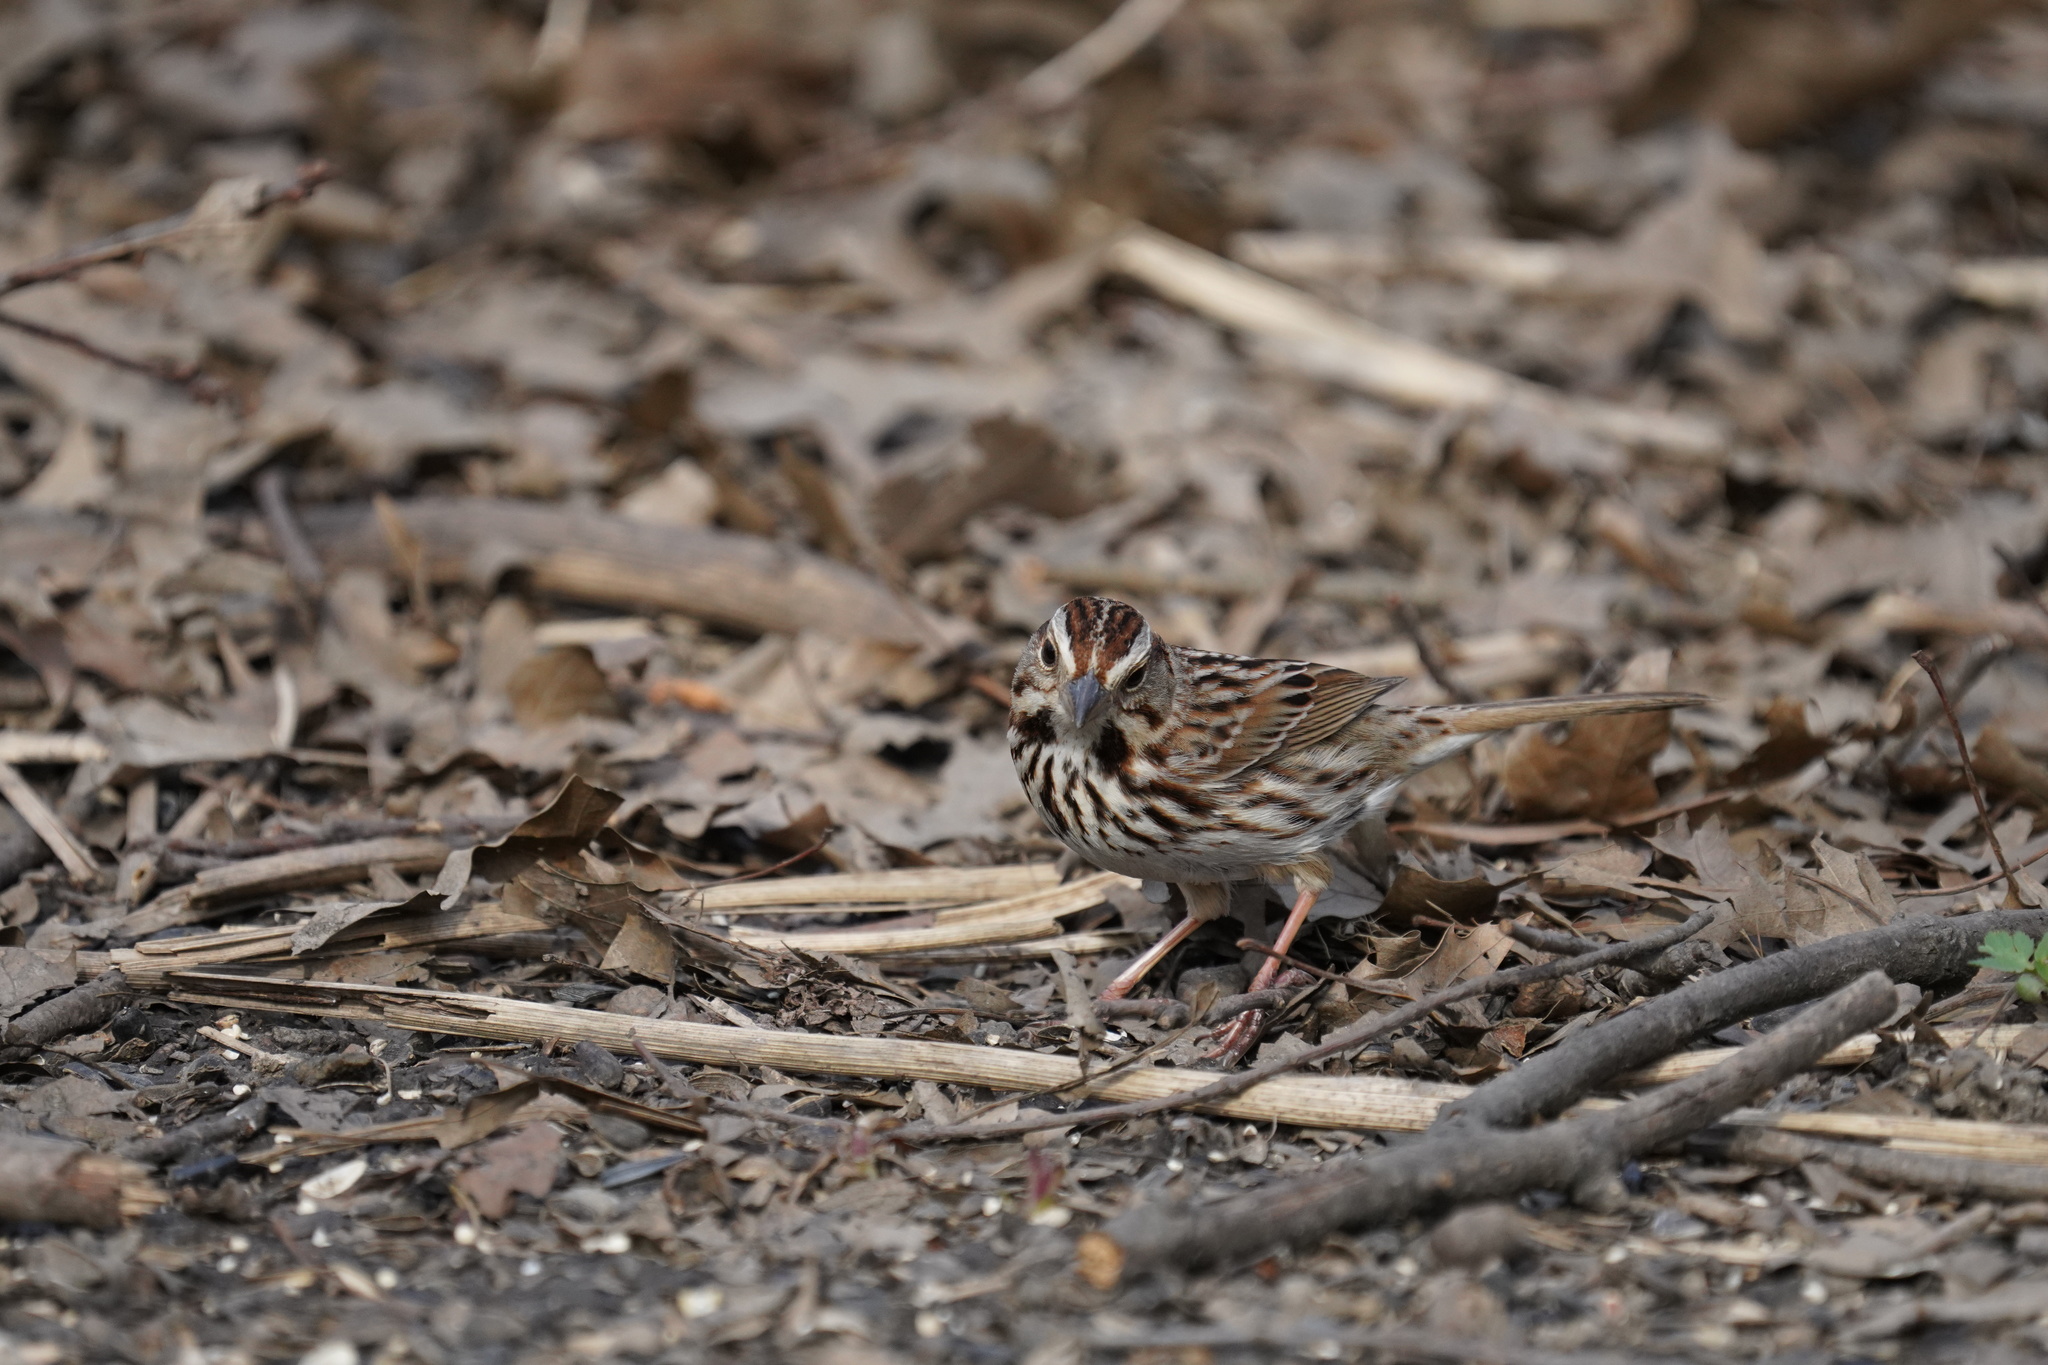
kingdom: Animalia
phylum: Chordata
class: Aves
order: Passeriformes
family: Passerellidae
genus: Melospiza
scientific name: Melospiza melodia
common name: Song sparrow
